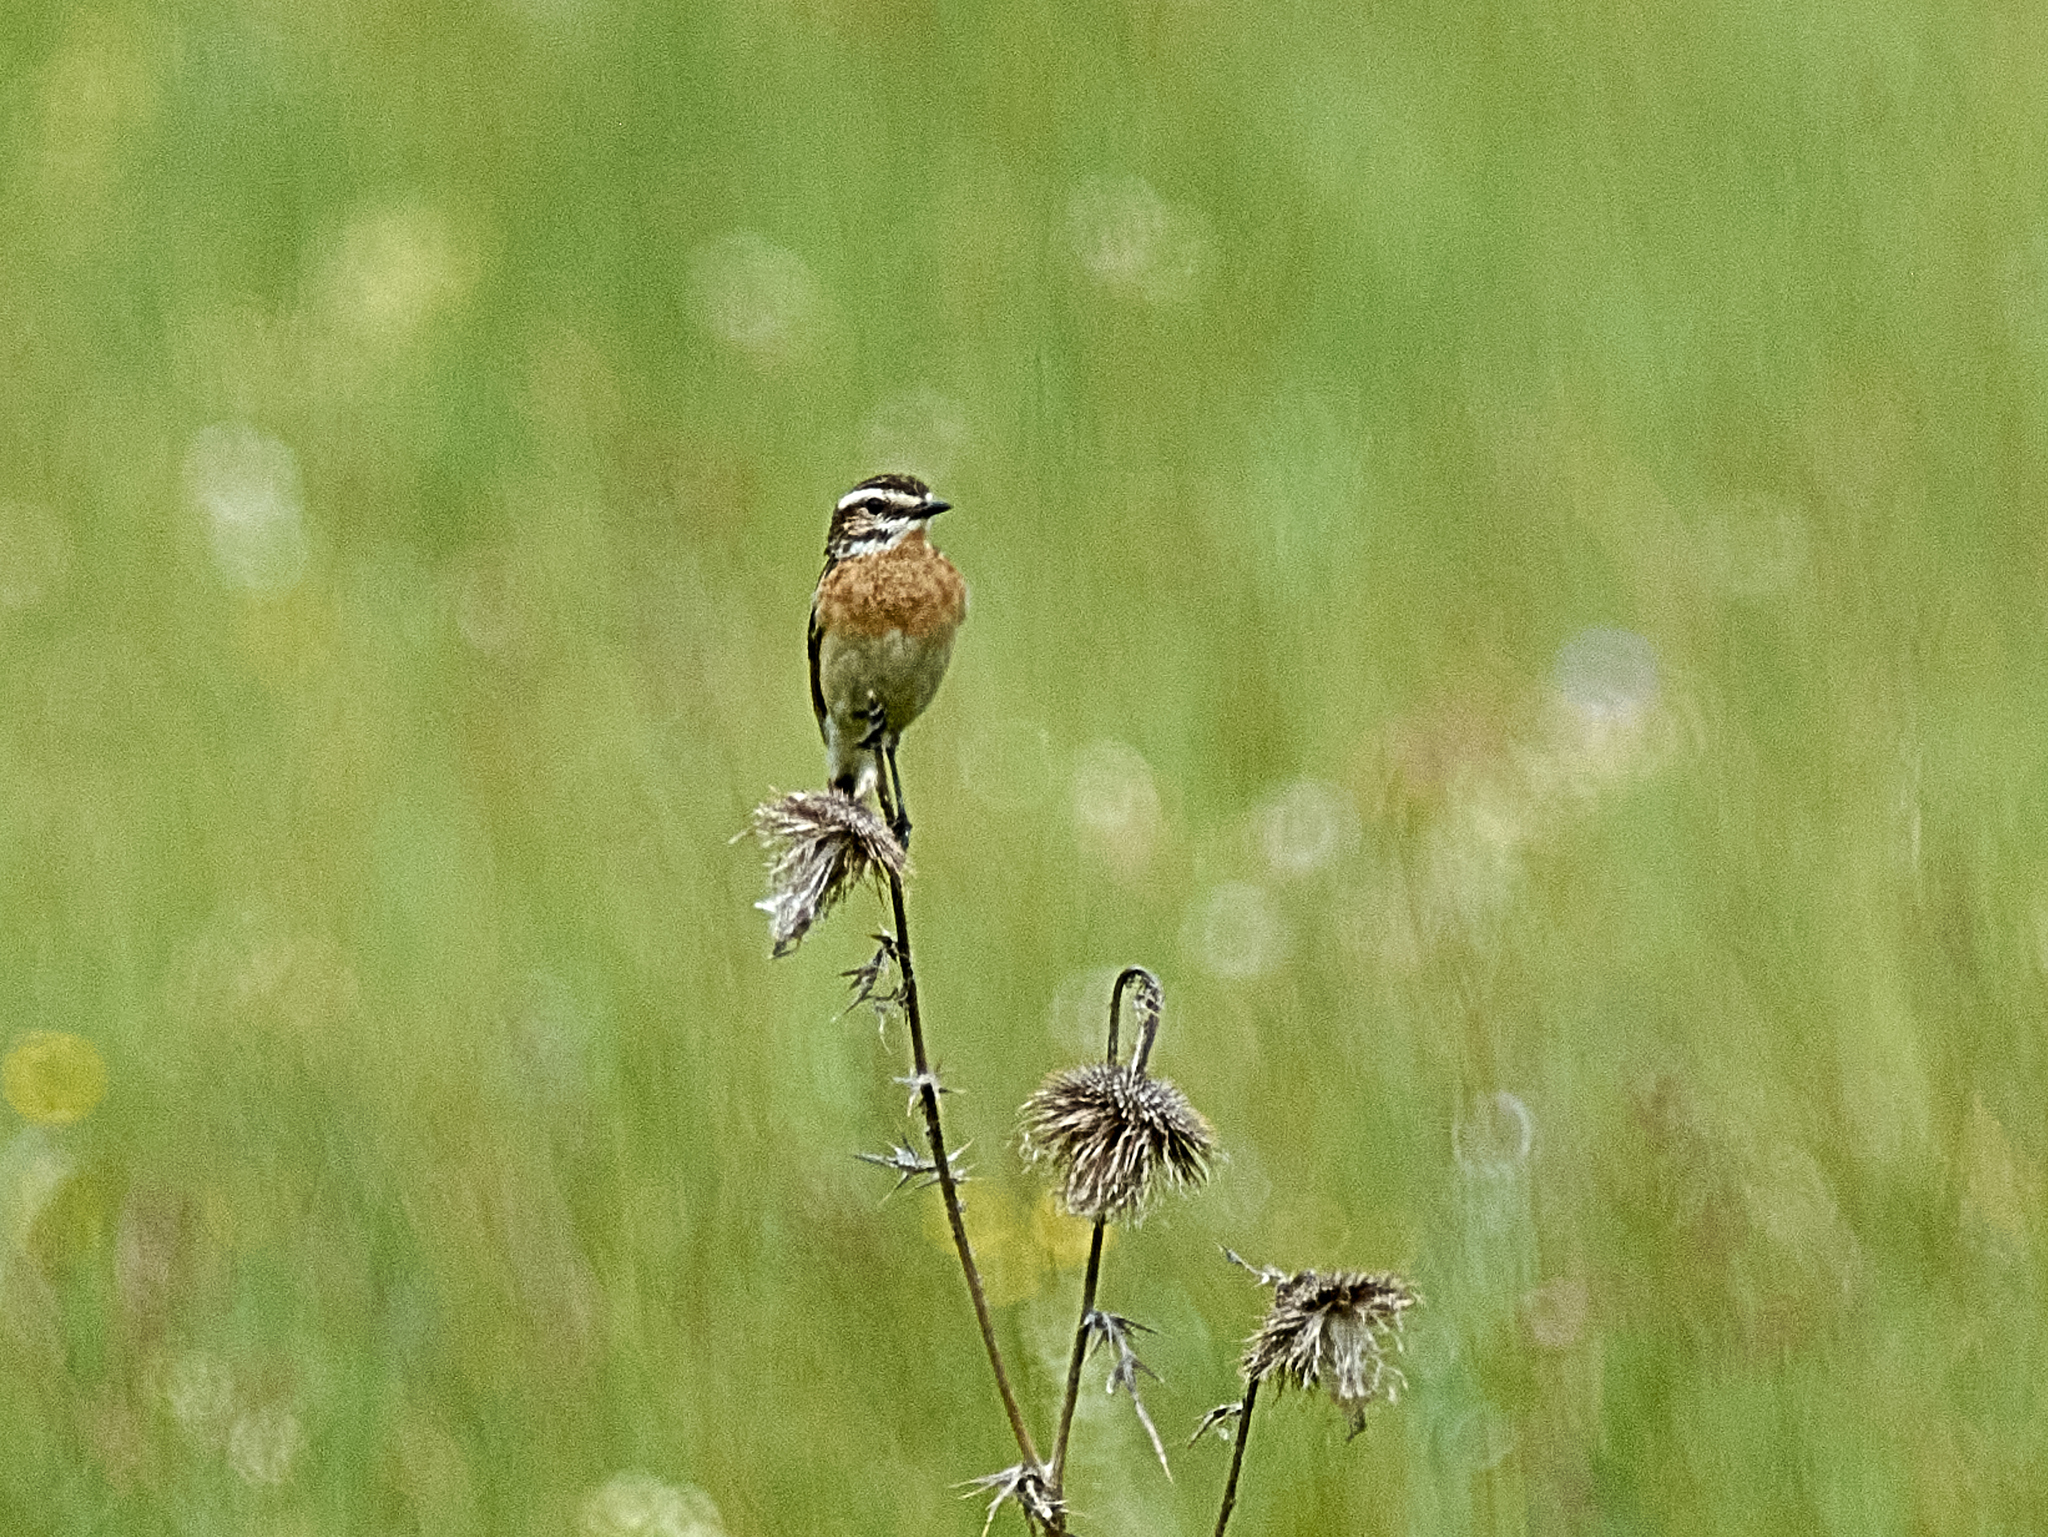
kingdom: Animalia
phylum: Chordata
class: Aves
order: Passeriformes
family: Muscicapidae
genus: Saxicola
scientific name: Saxicola rubetra
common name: Whinchat
